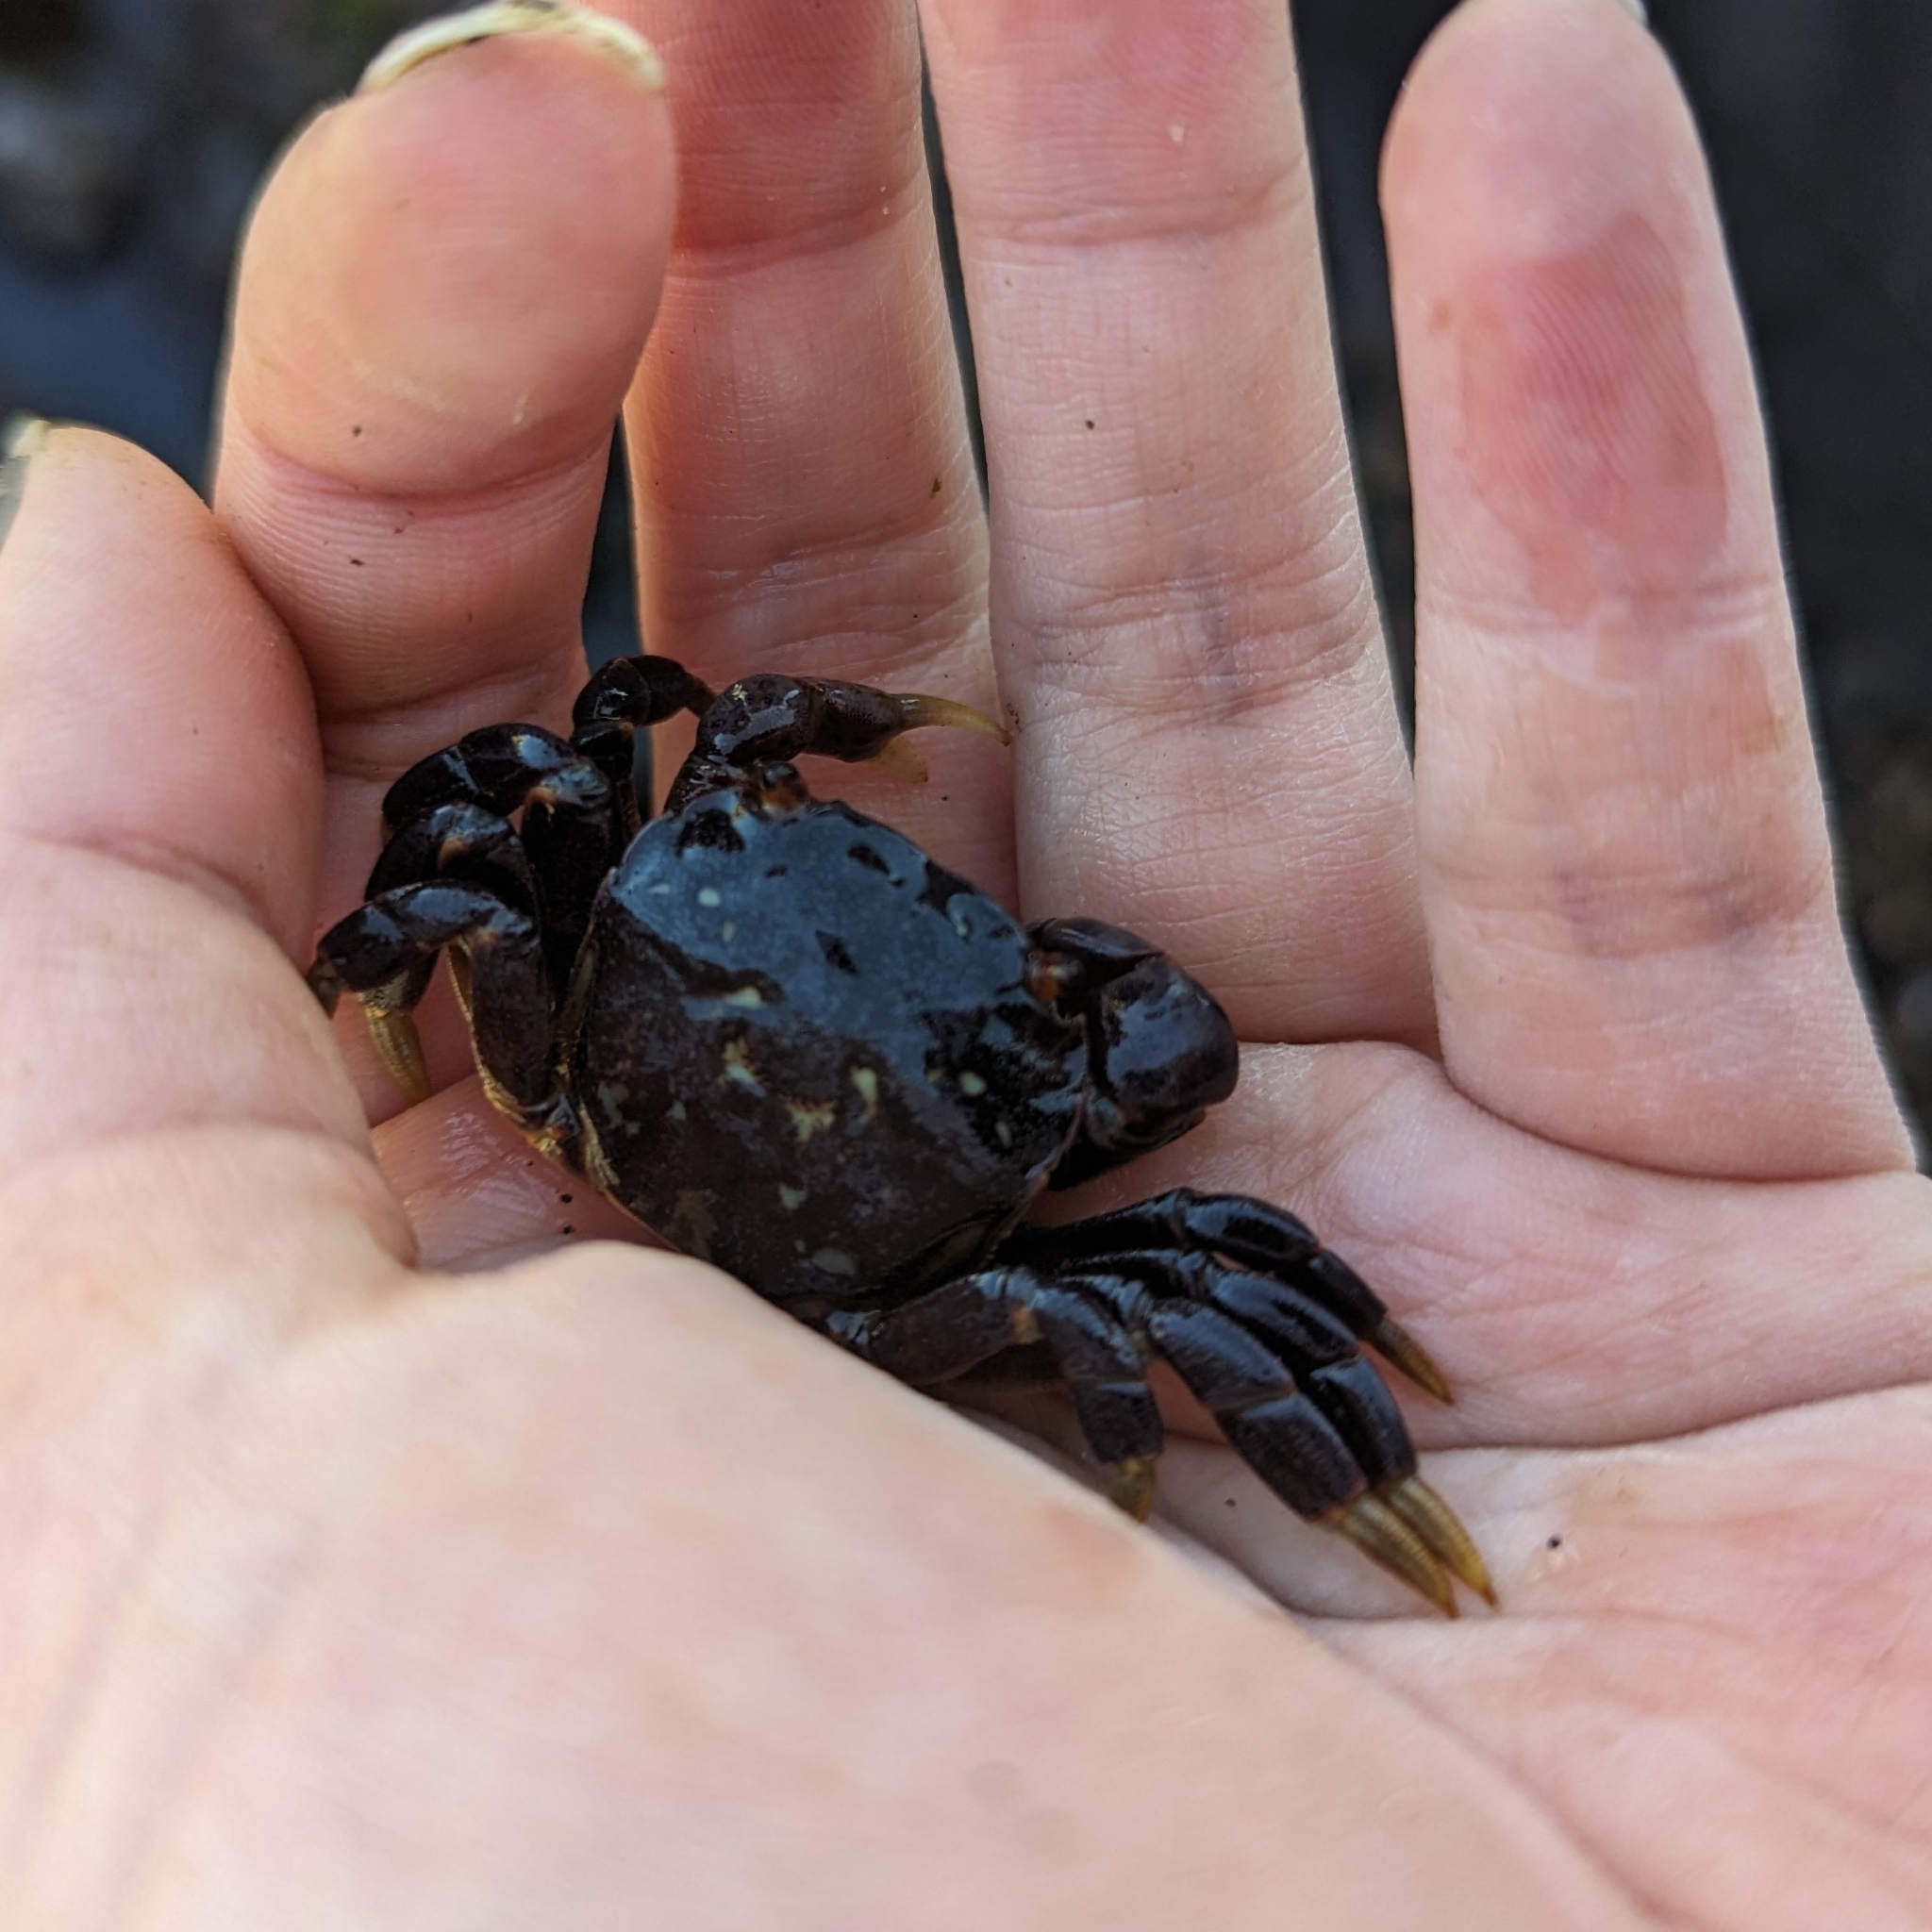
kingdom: Animalia
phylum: Arthropoda
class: Malacostraca
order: Decapoda
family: Varunidae
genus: Hemigrapsus
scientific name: Hemigrapsus nudus
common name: Purple shore crab
